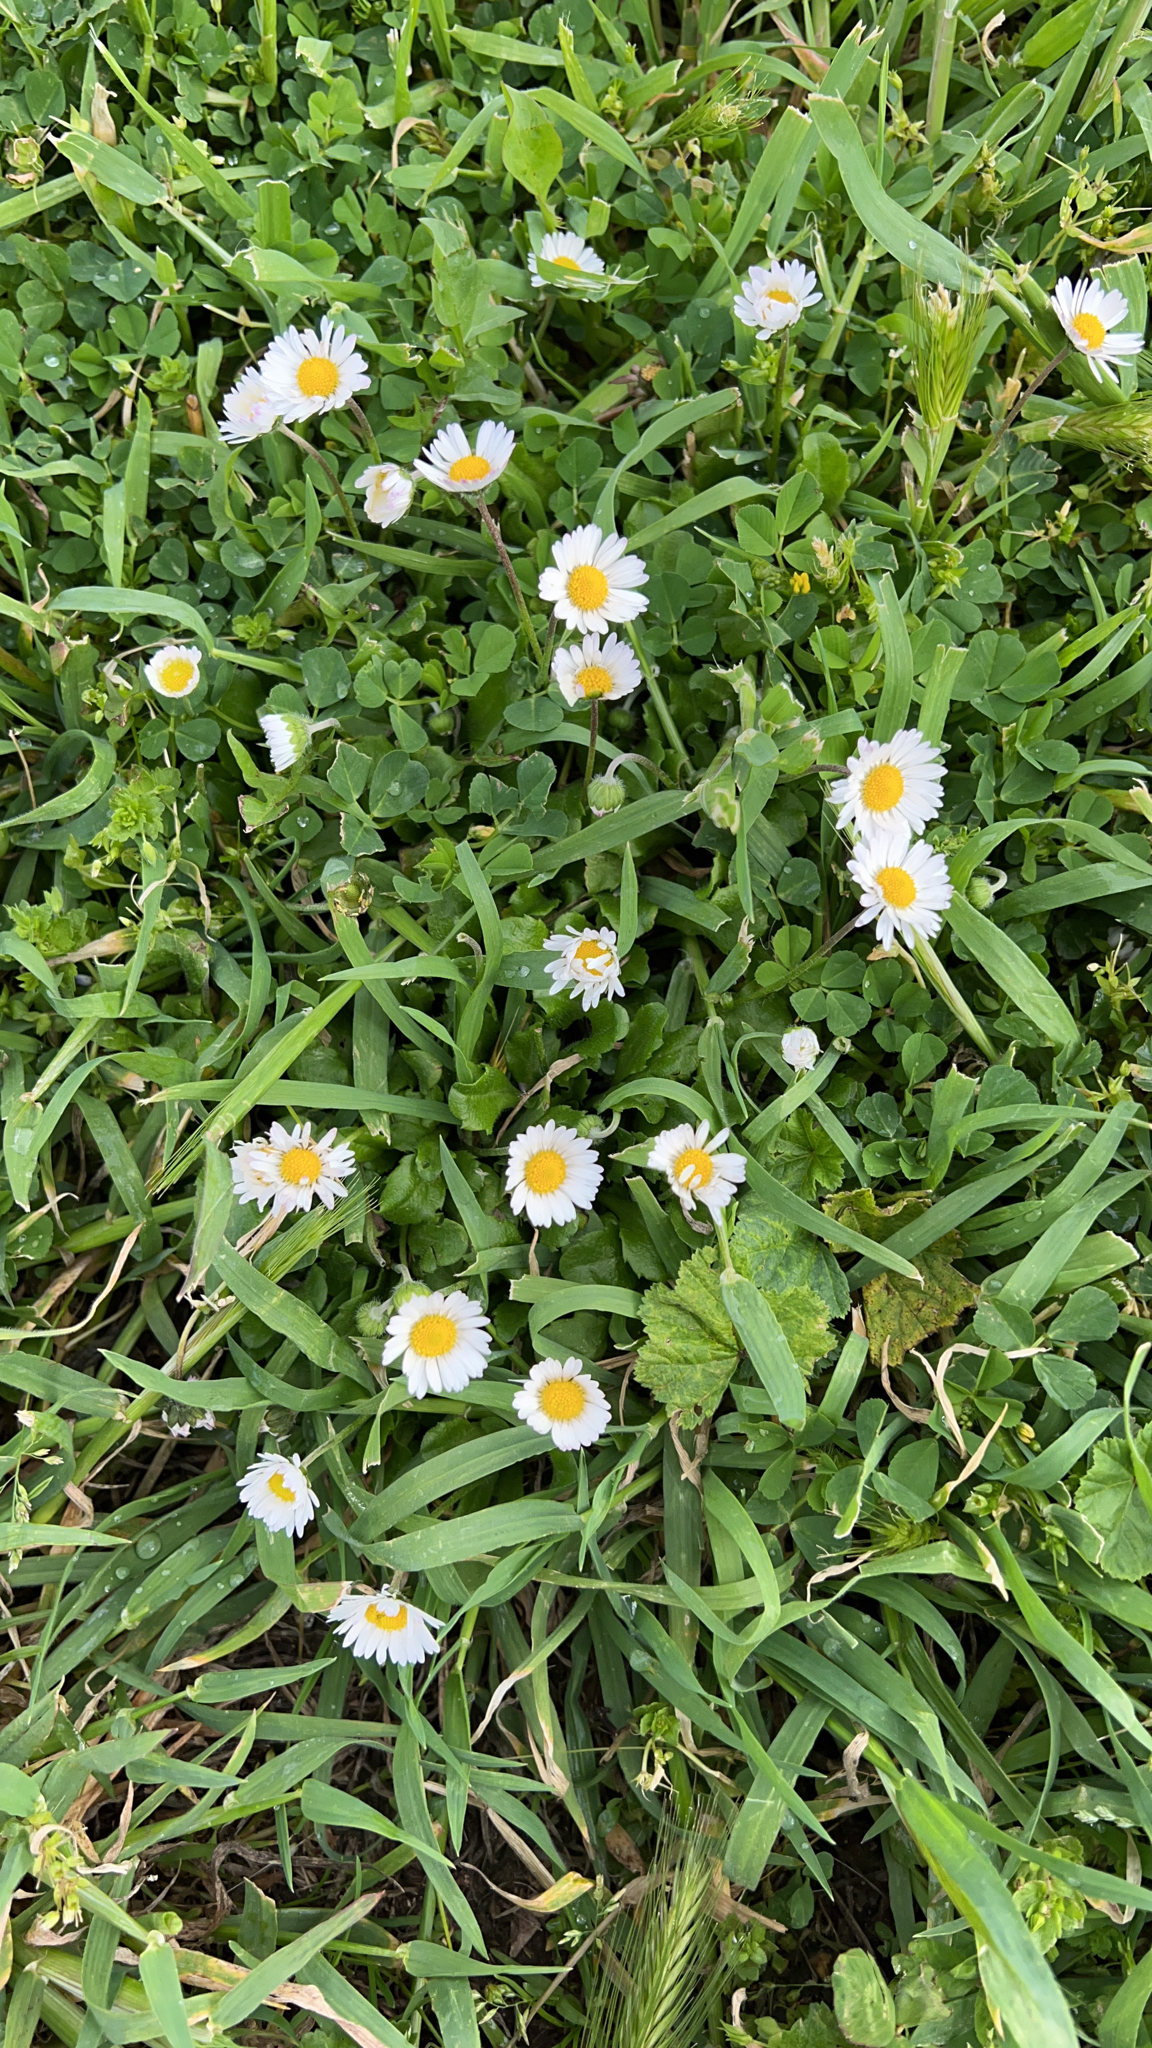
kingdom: Plantae
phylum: Tracheophyta
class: Magnoliopsida
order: Asterales
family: Asteraceae
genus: Bellis
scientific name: Bellis perennis
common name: Lawndaisy
